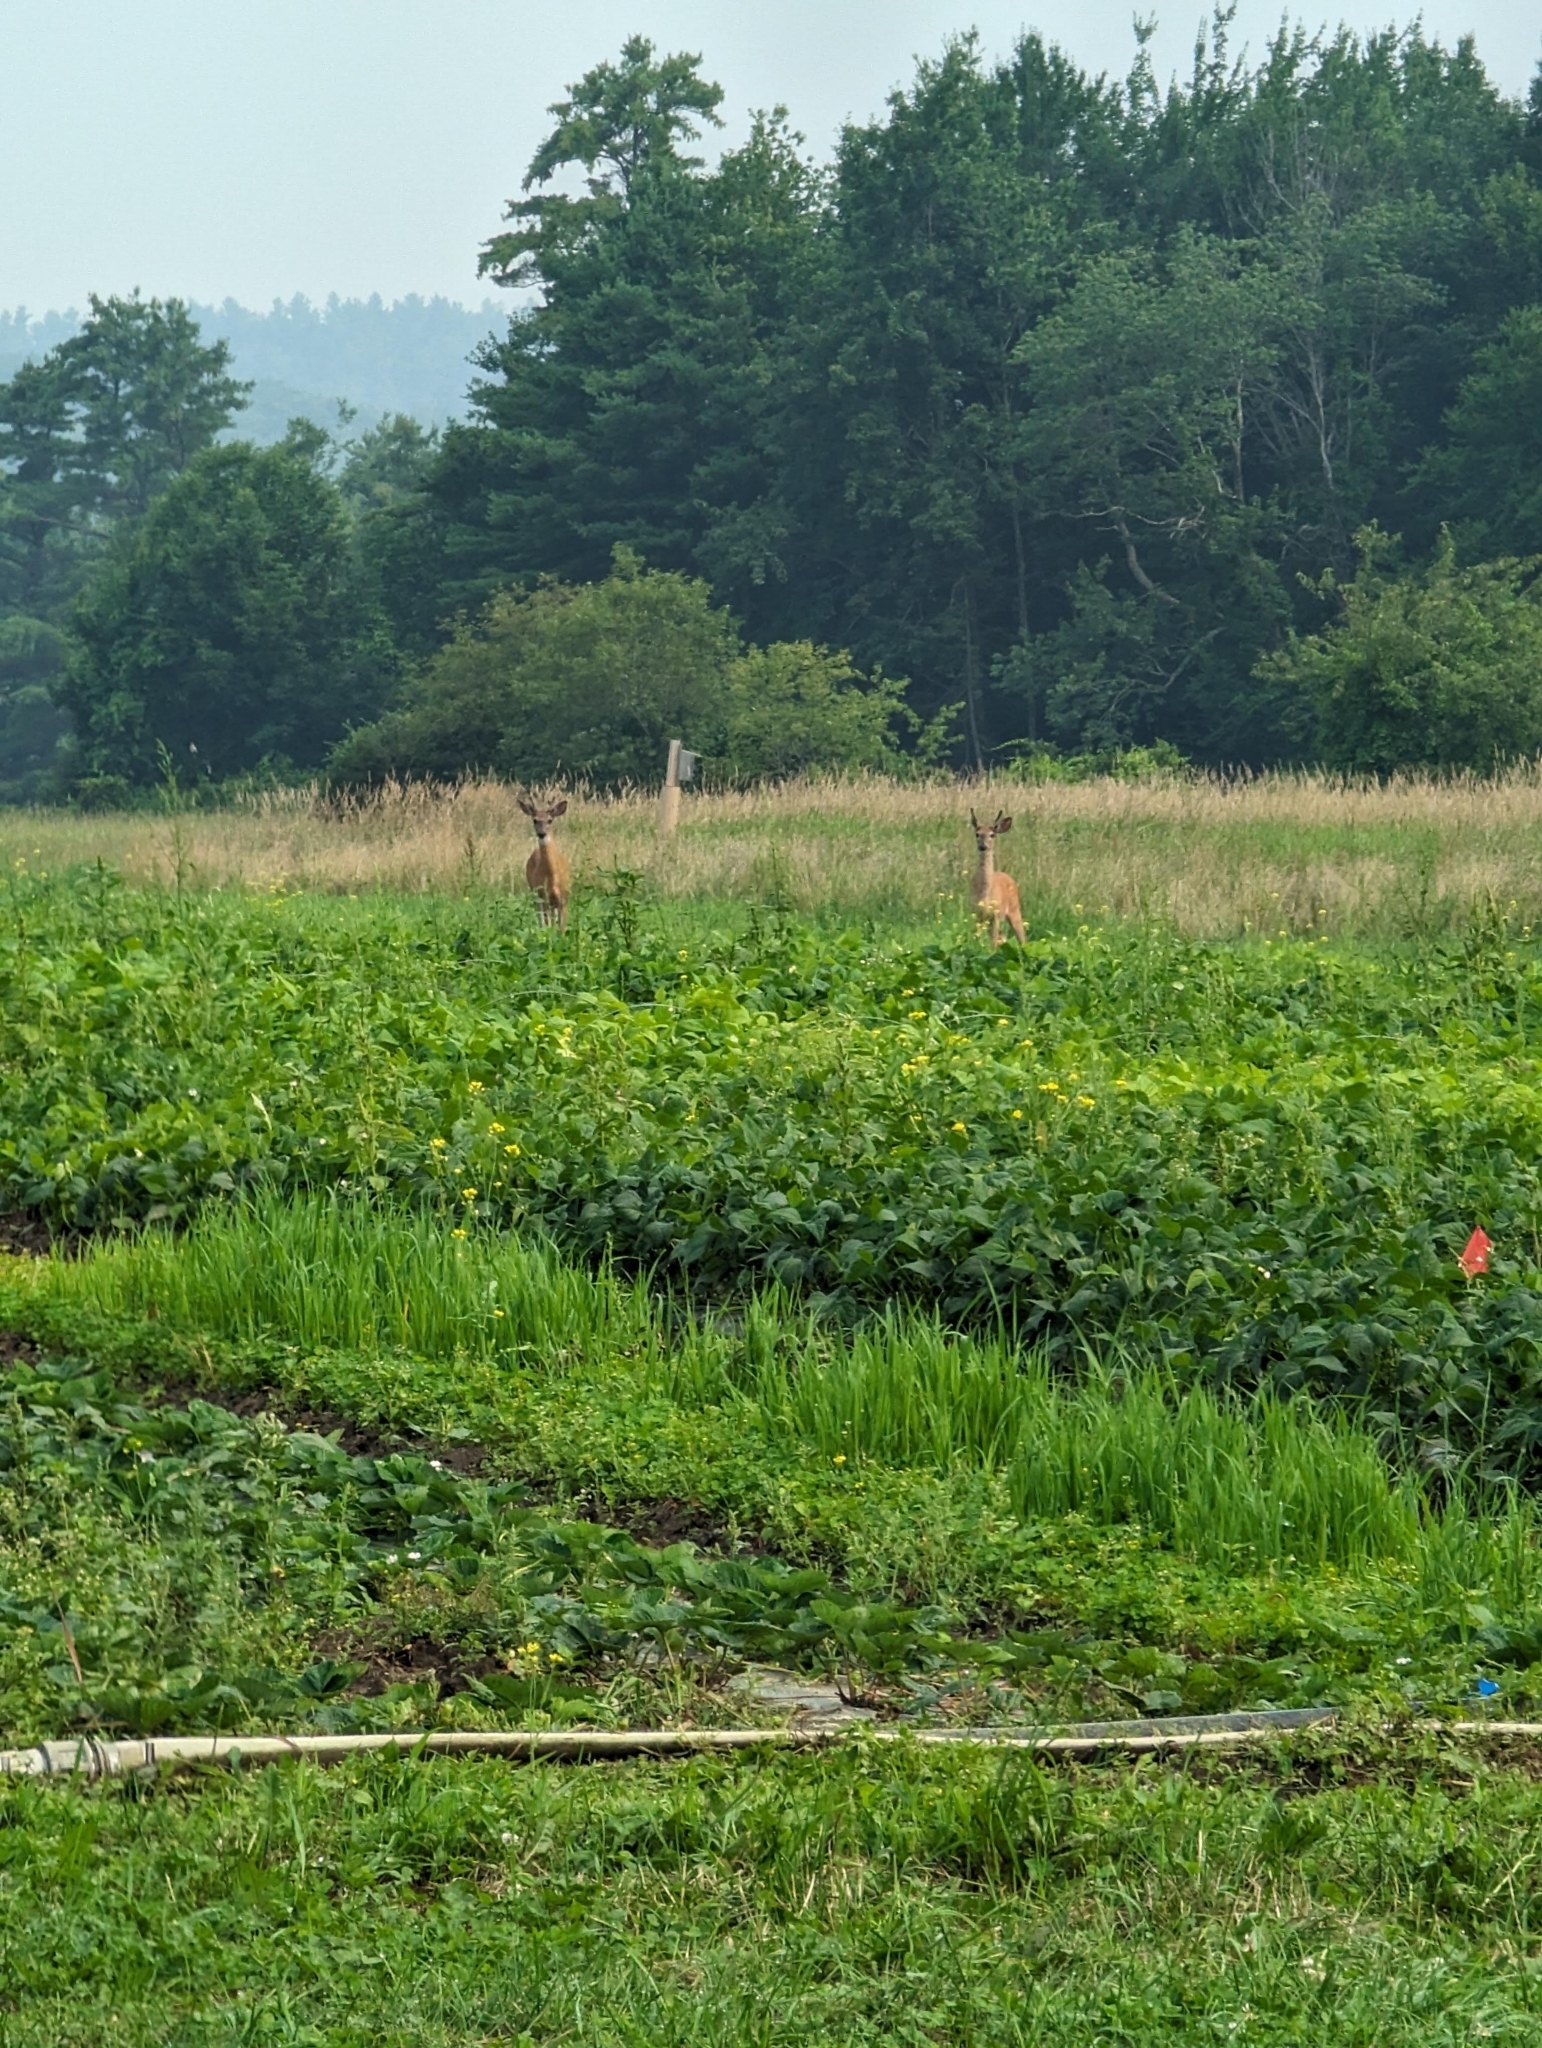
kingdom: Animalia
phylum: Chordata
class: Mammalia
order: Artiodactyla
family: Cervidae
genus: Odocoileus
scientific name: Odocoileus virginianus
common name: White-tailed deer
